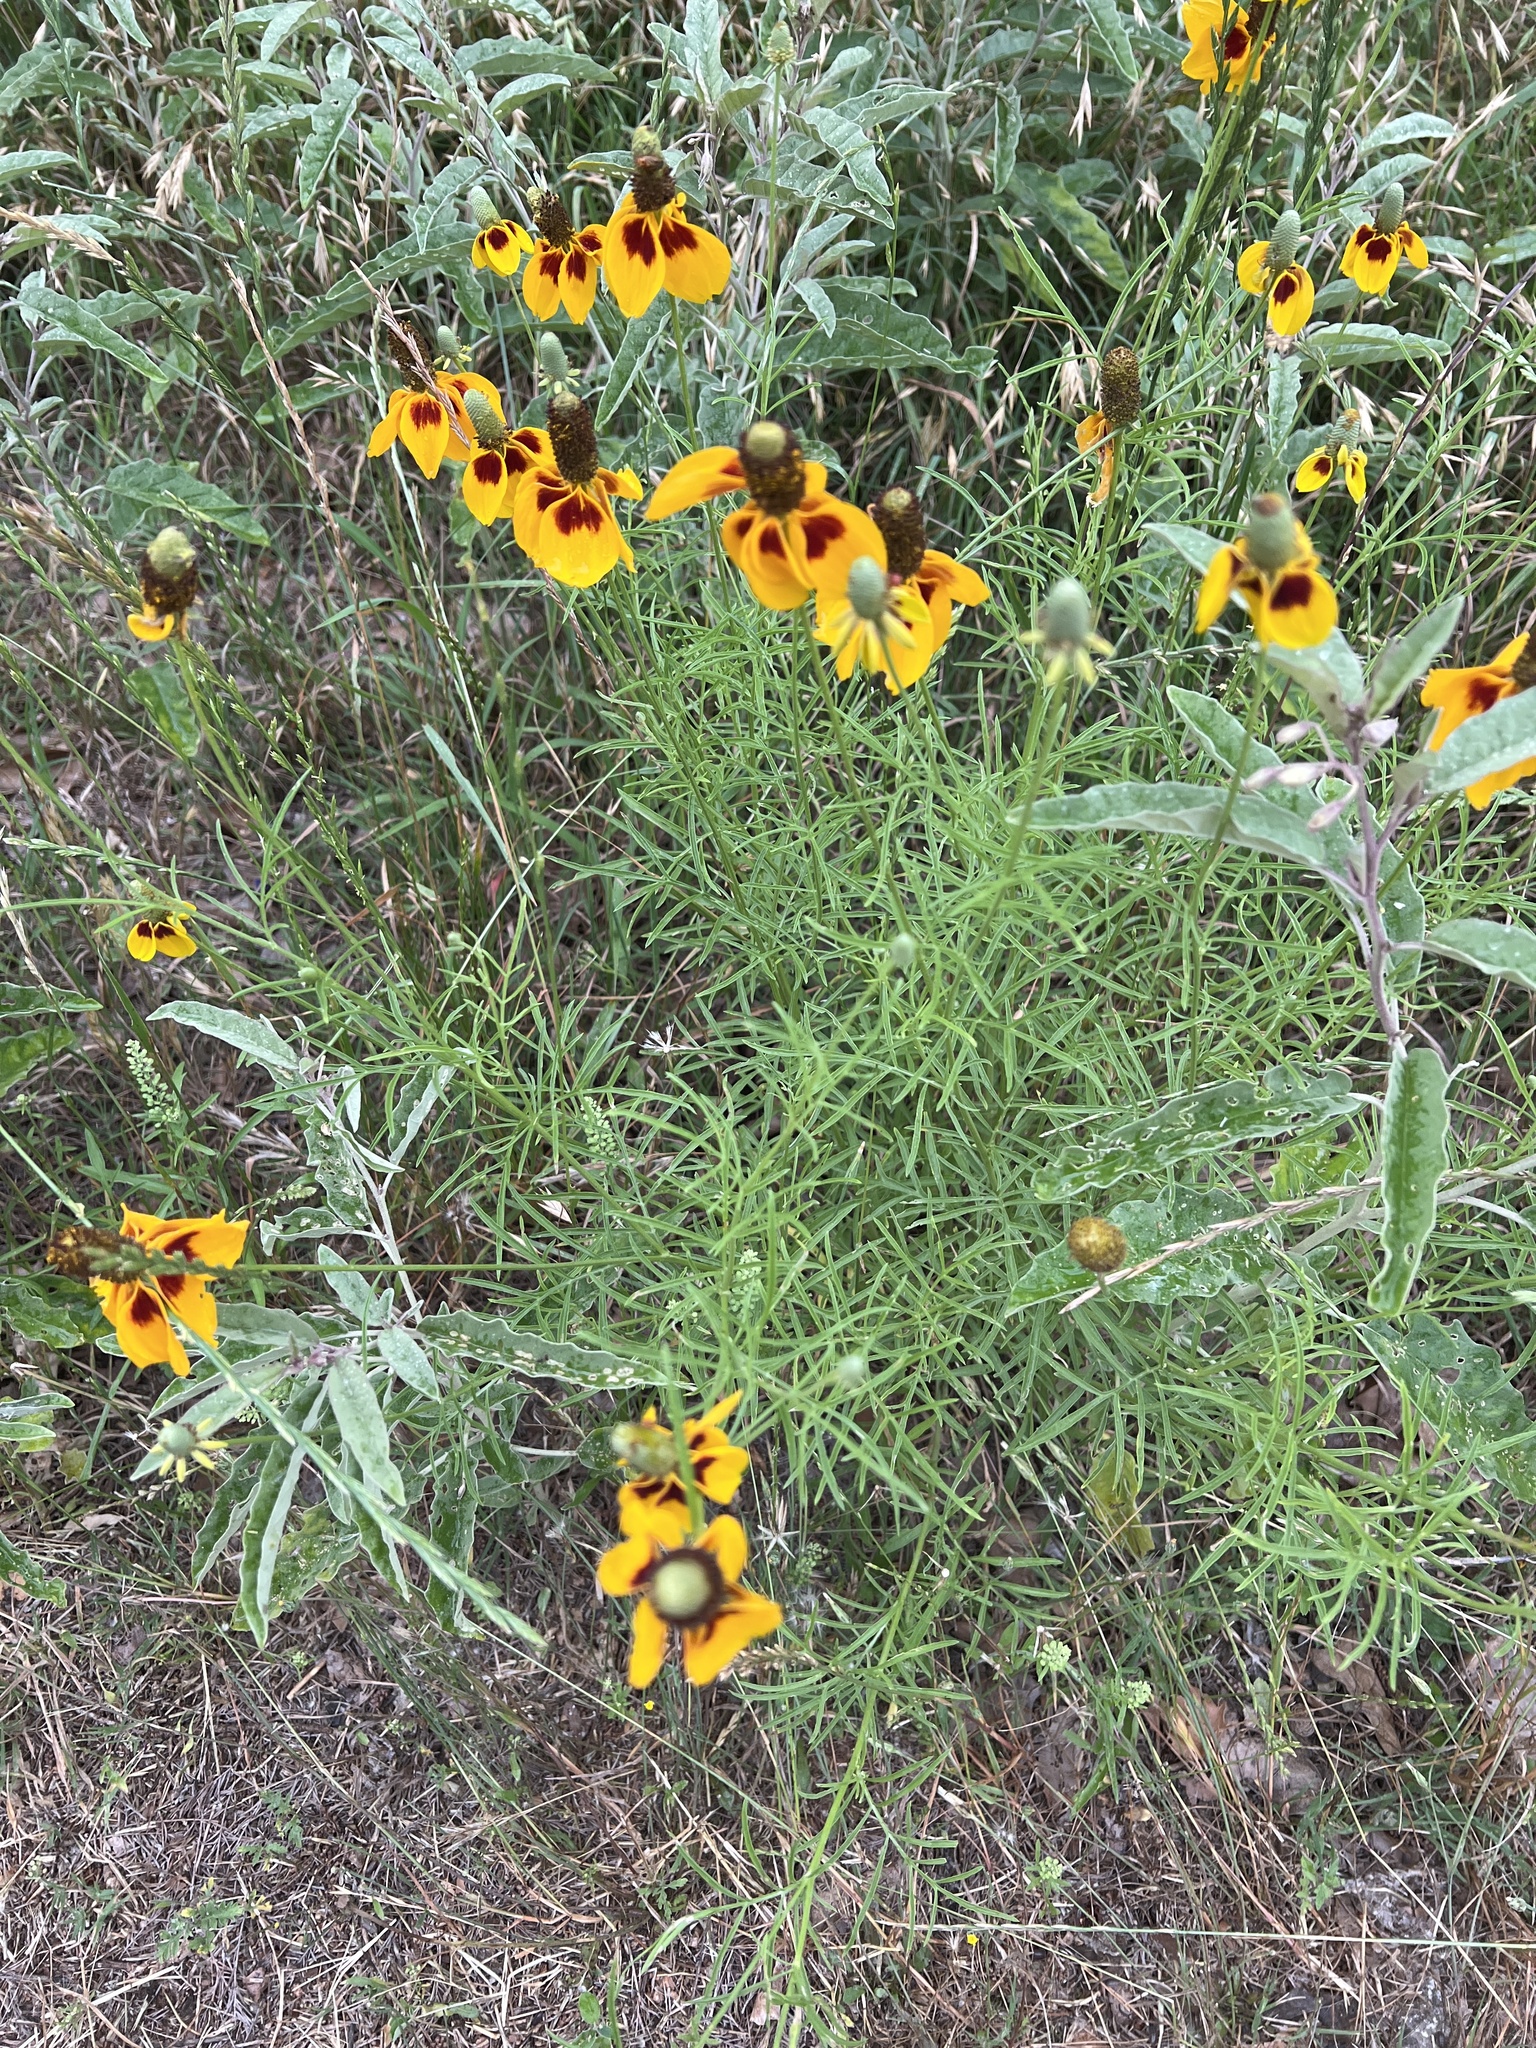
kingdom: Plantae
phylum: Tracheophyta
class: Magnoliopsida
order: Asterales
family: Asteraceae
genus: Ratibida
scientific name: Ratibida columnifera
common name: Prairie coneflower
